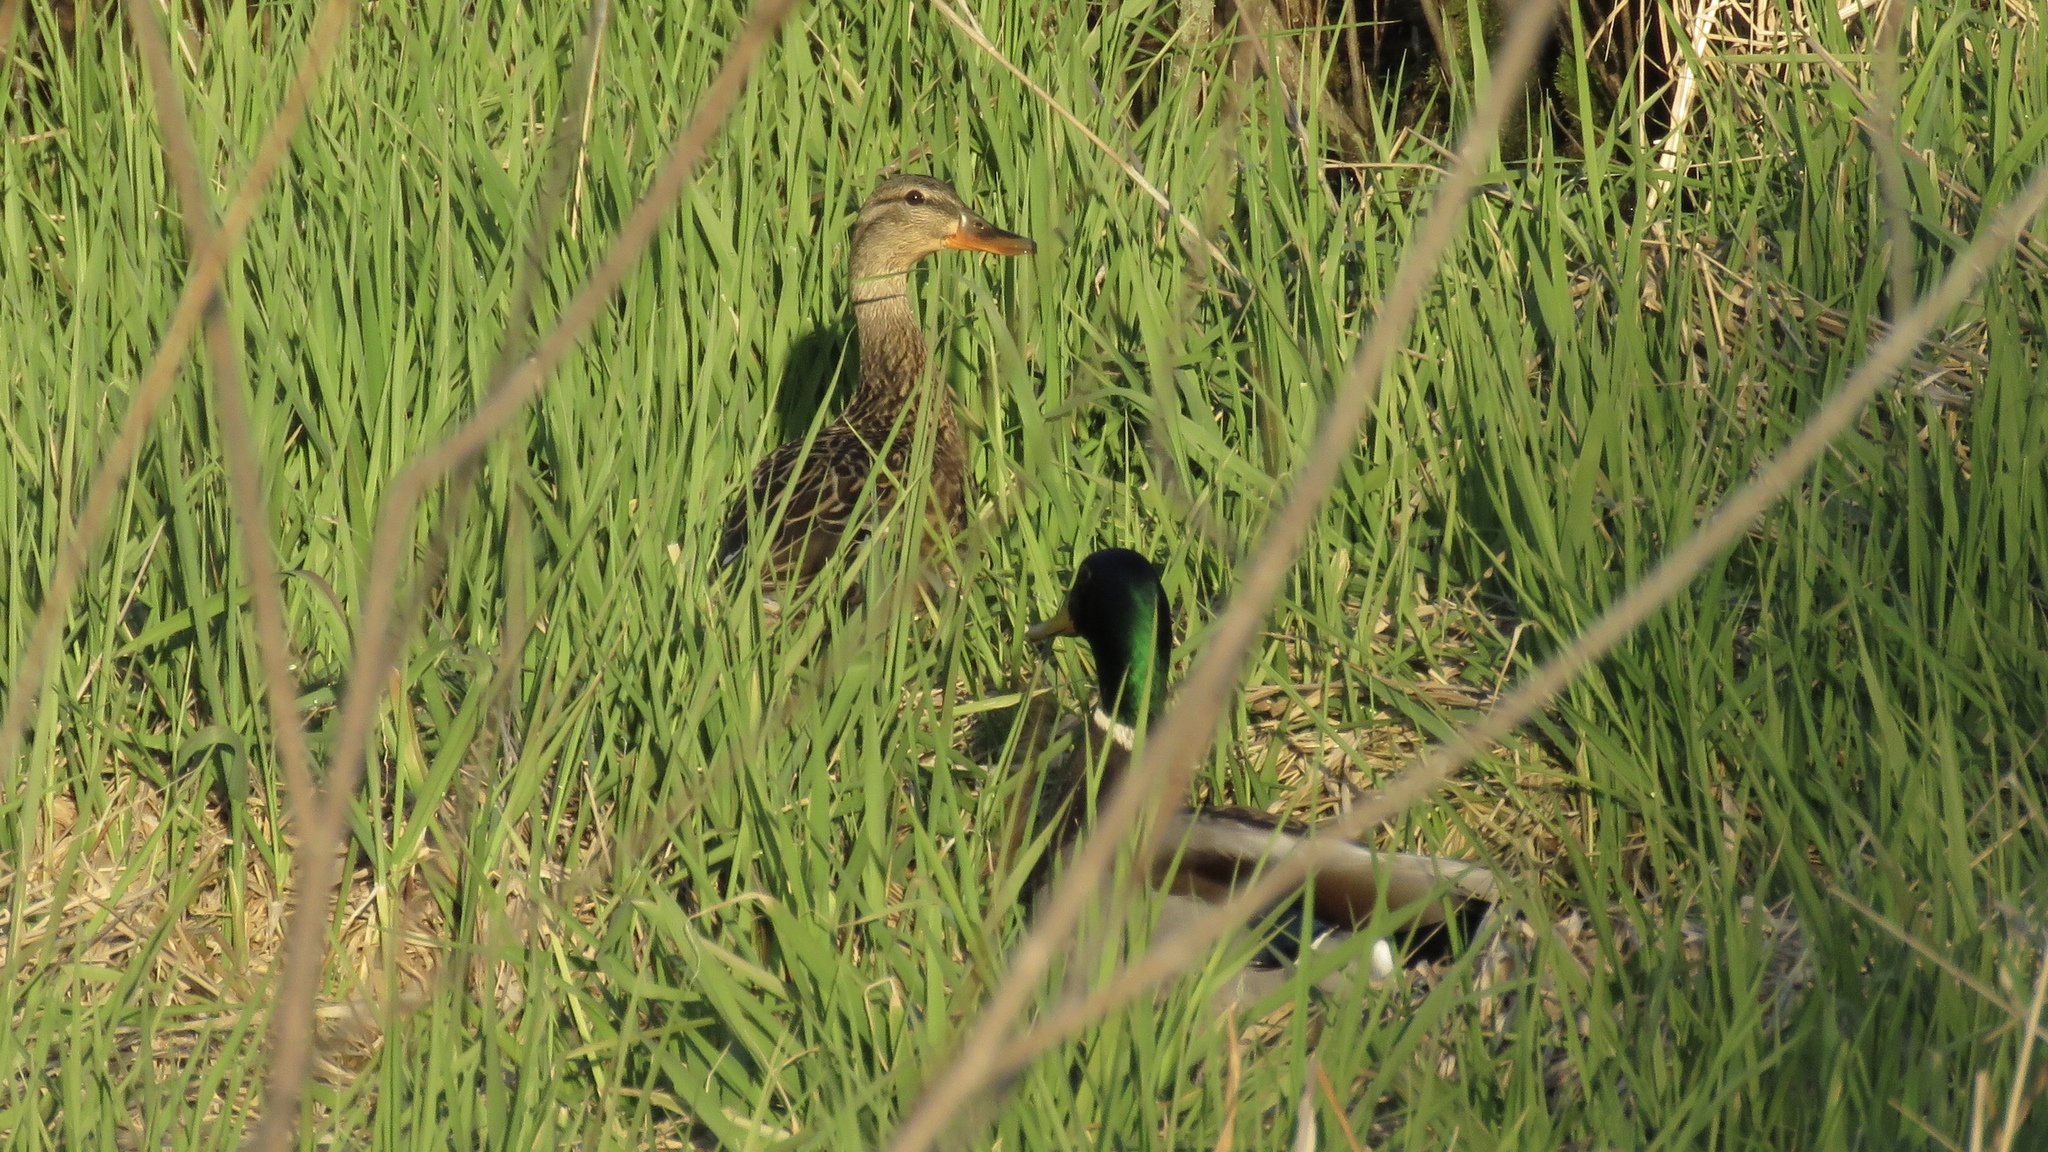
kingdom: Animalia
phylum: Chordata
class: Aves
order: Anseriformes
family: Anatidae
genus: Anas
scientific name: Anas platyrhynchos
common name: Mallard
